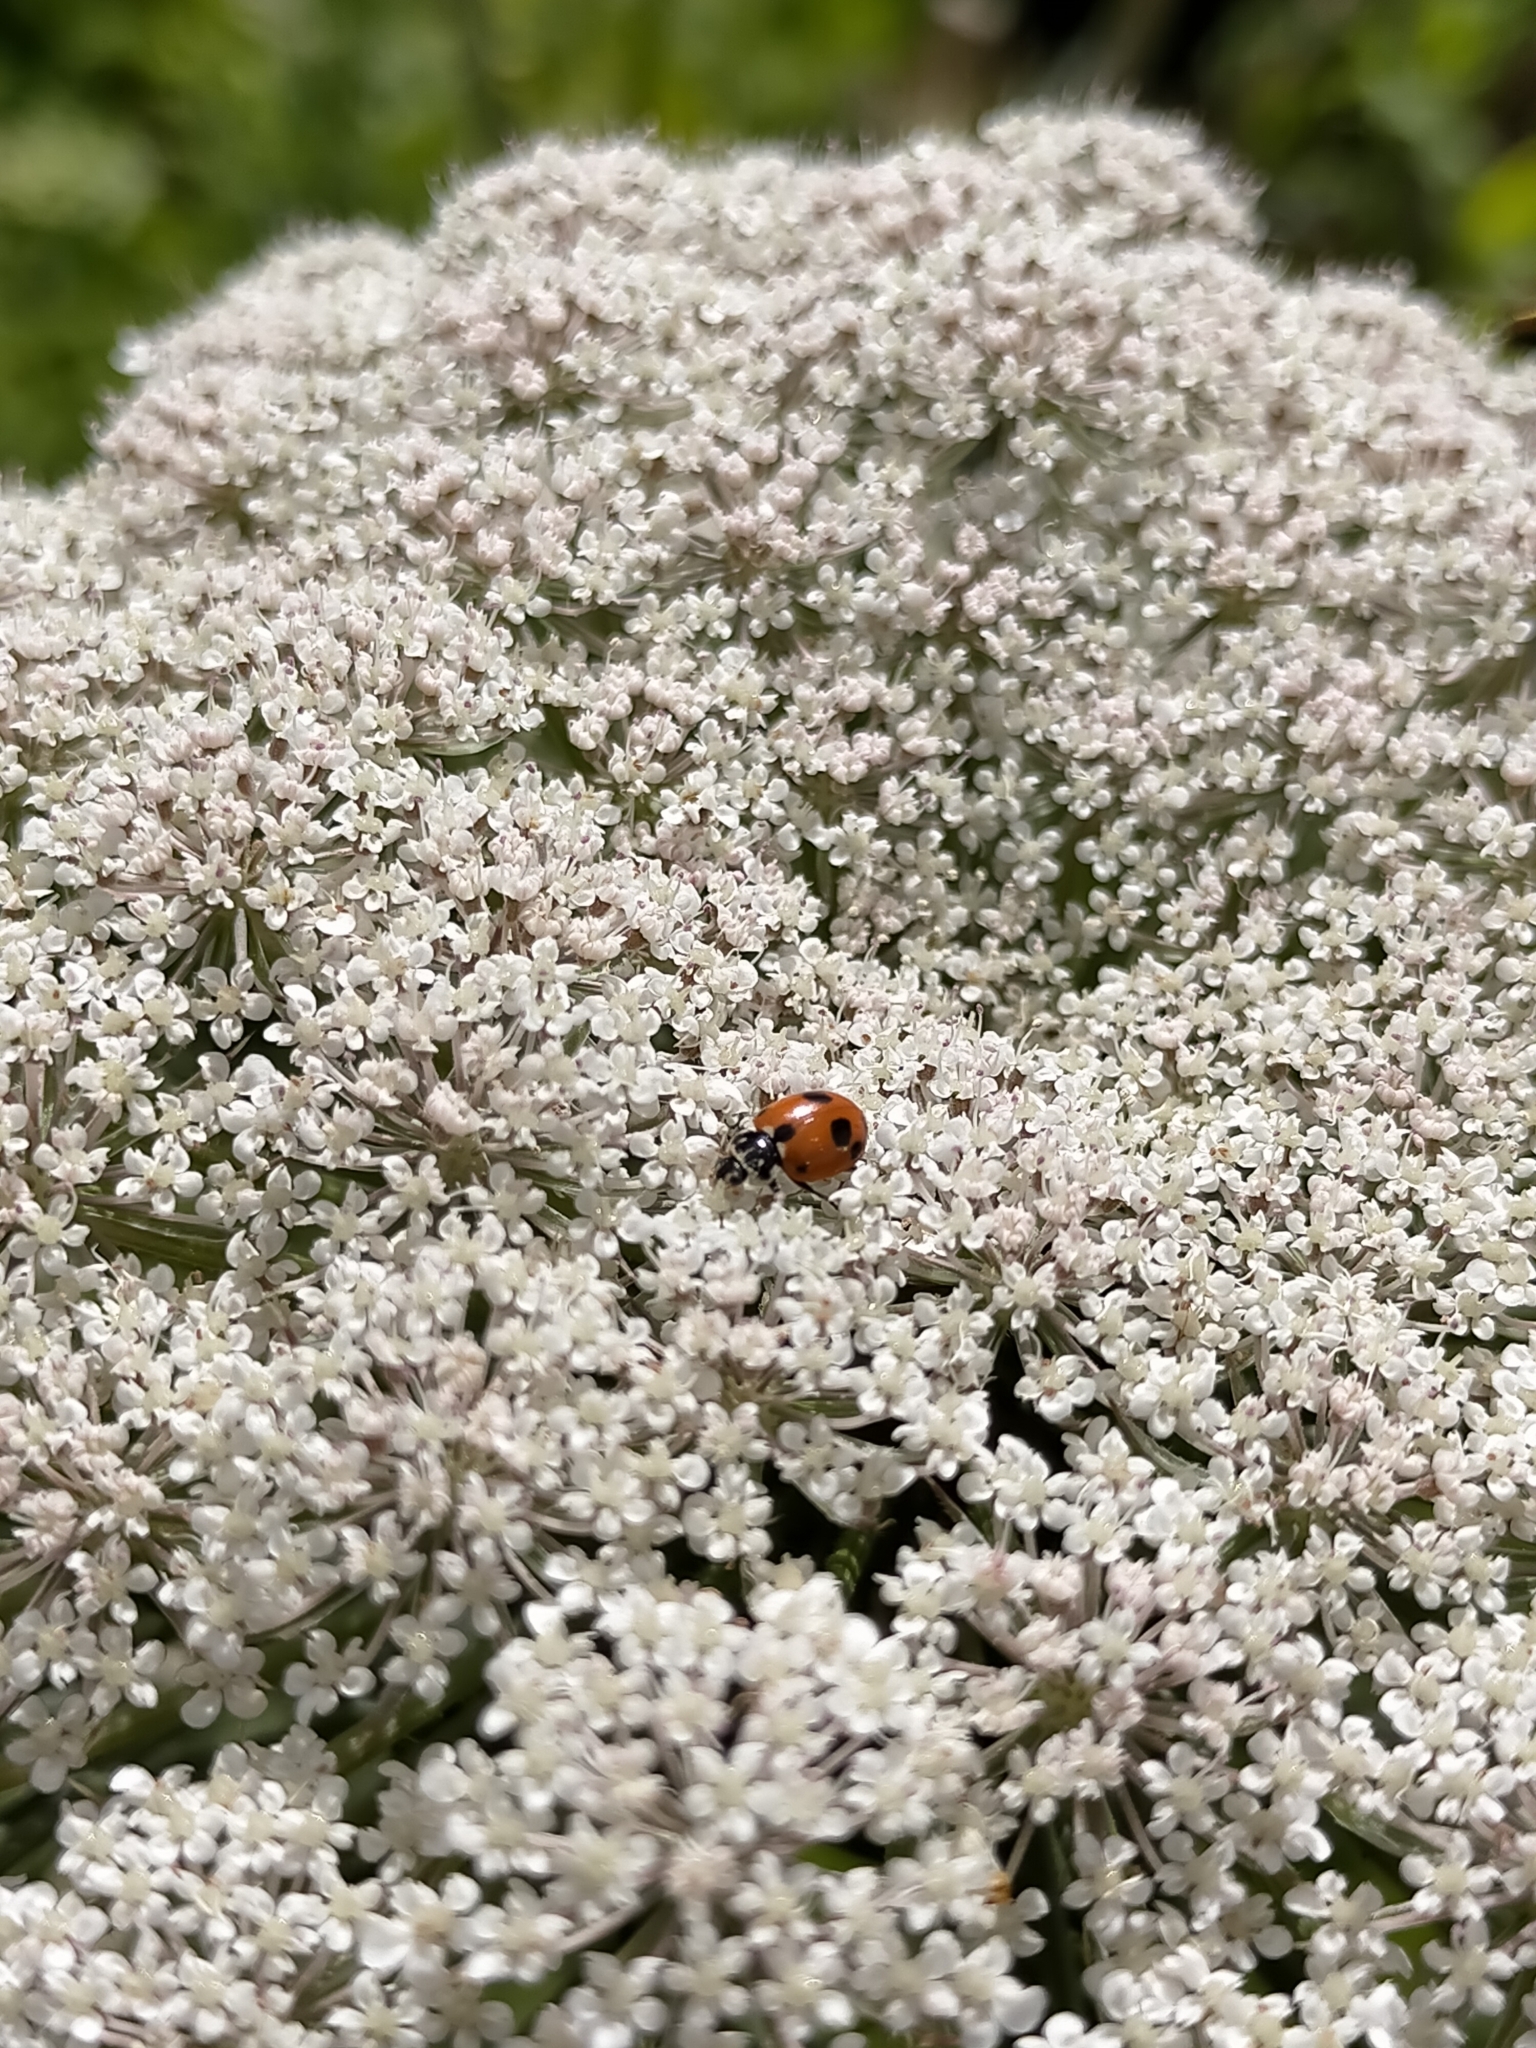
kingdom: Animalia
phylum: Arthropoda
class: Insecta
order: Coleoptera
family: Coccinellidae
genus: Hippodamia
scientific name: Hippodamia variegata
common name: Ladybird beetle
